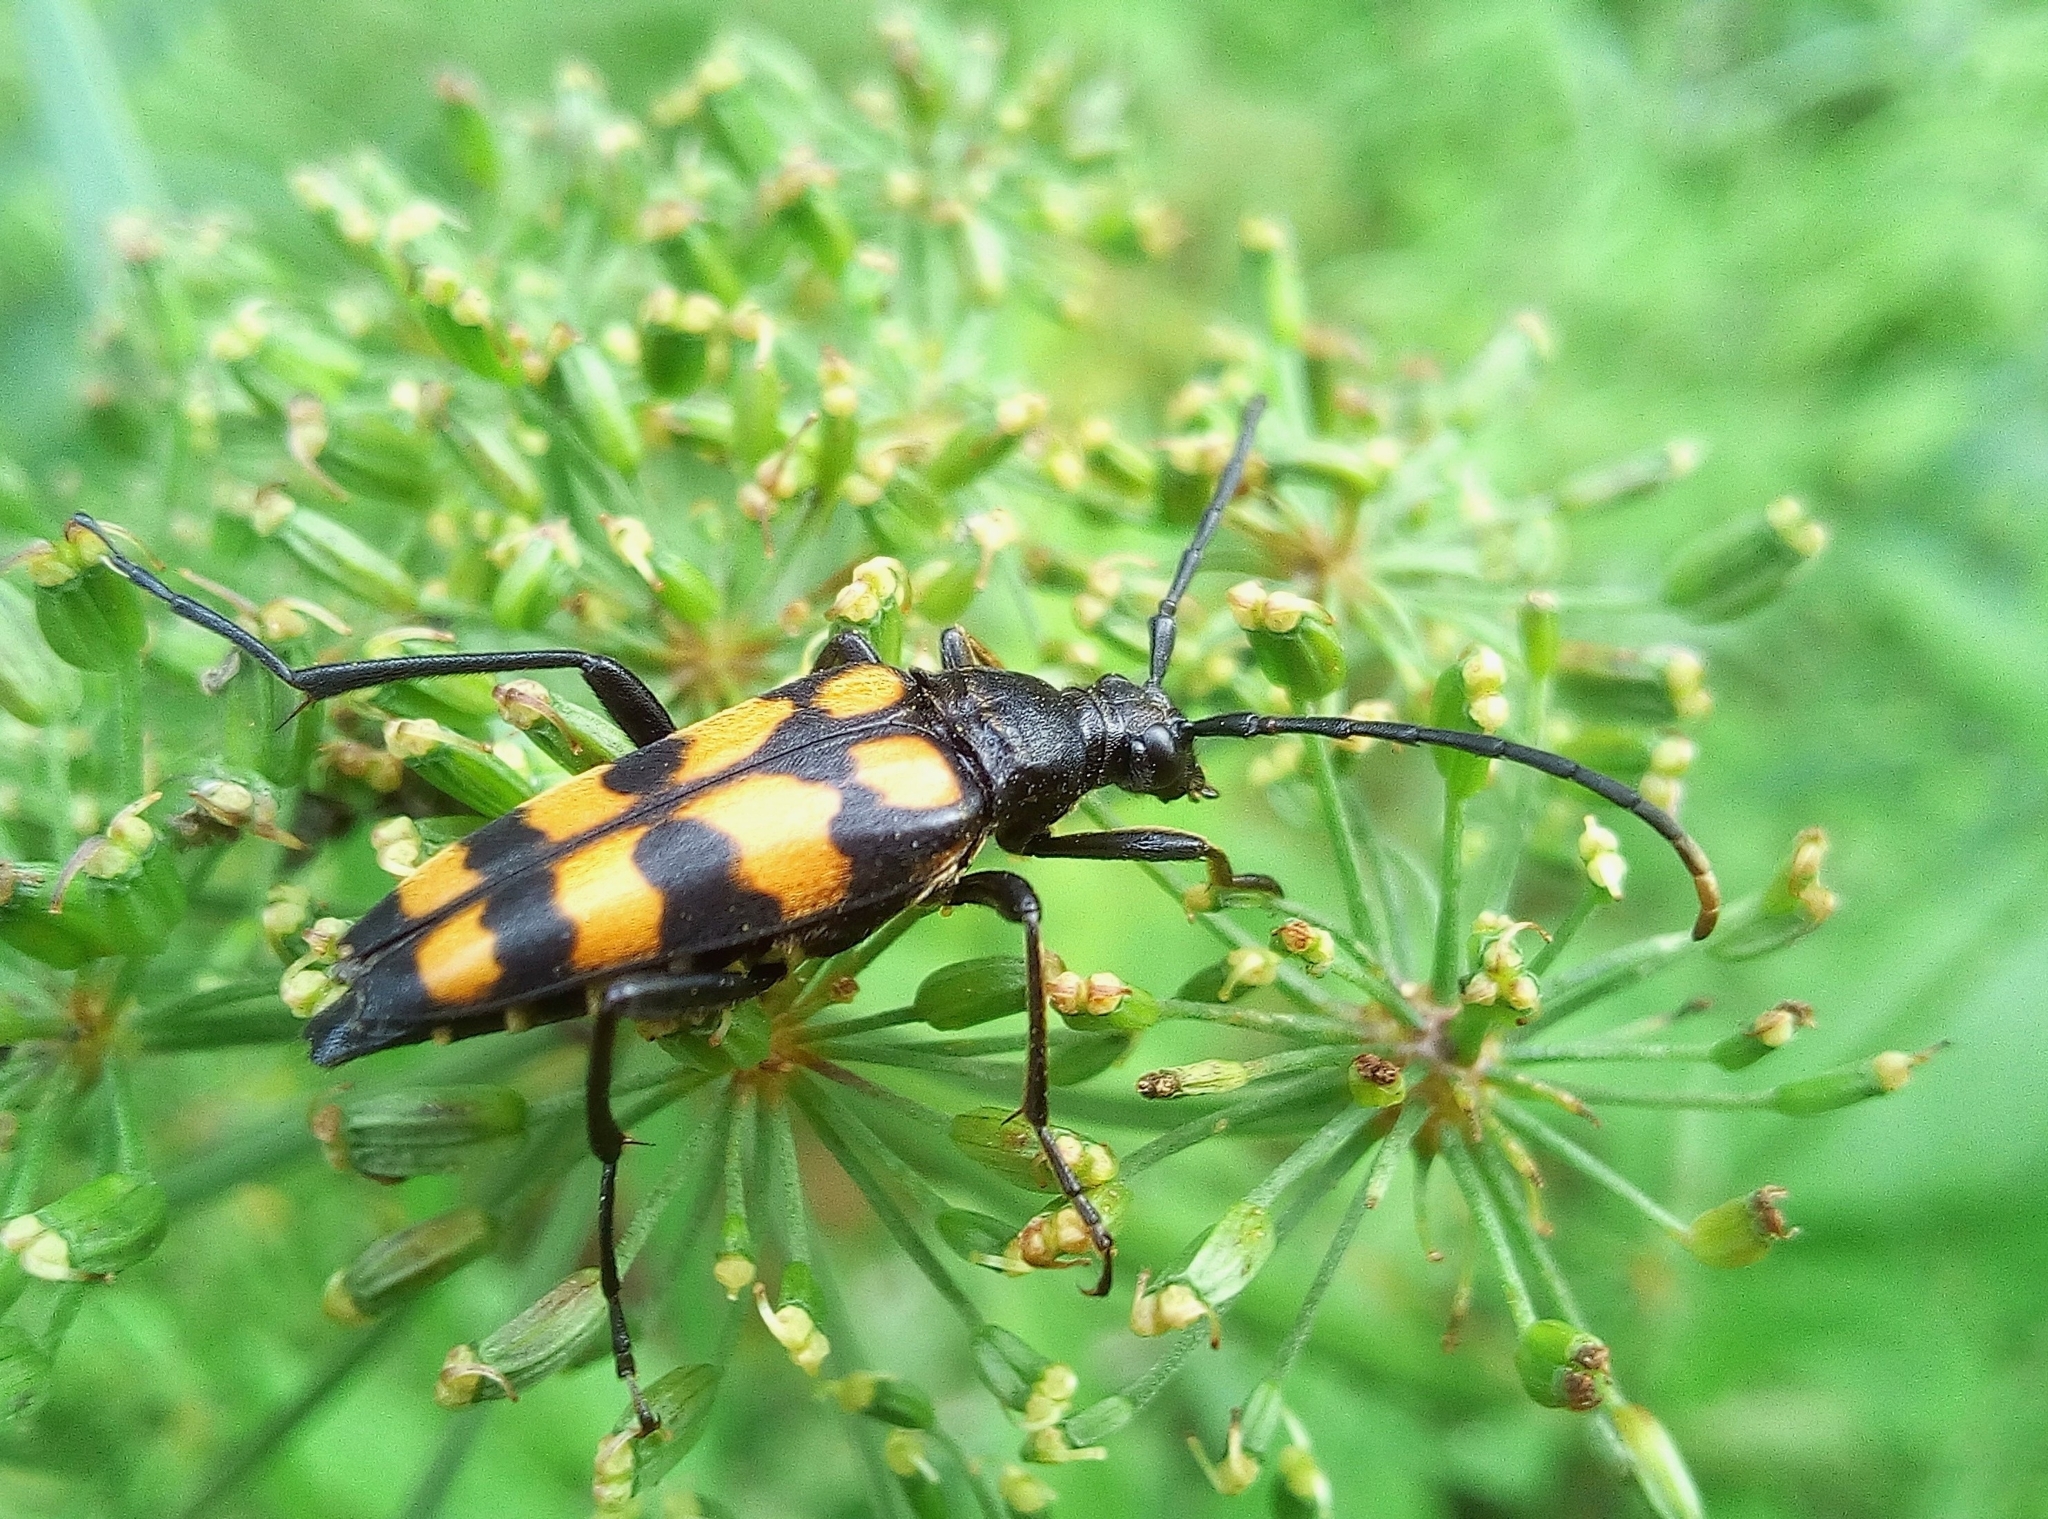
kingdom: Animalia
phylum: Arthropoda
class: Insecta
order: Coleoptera
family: Cerambycidae
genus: Leptura
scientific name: Leptura quadrifasciata
